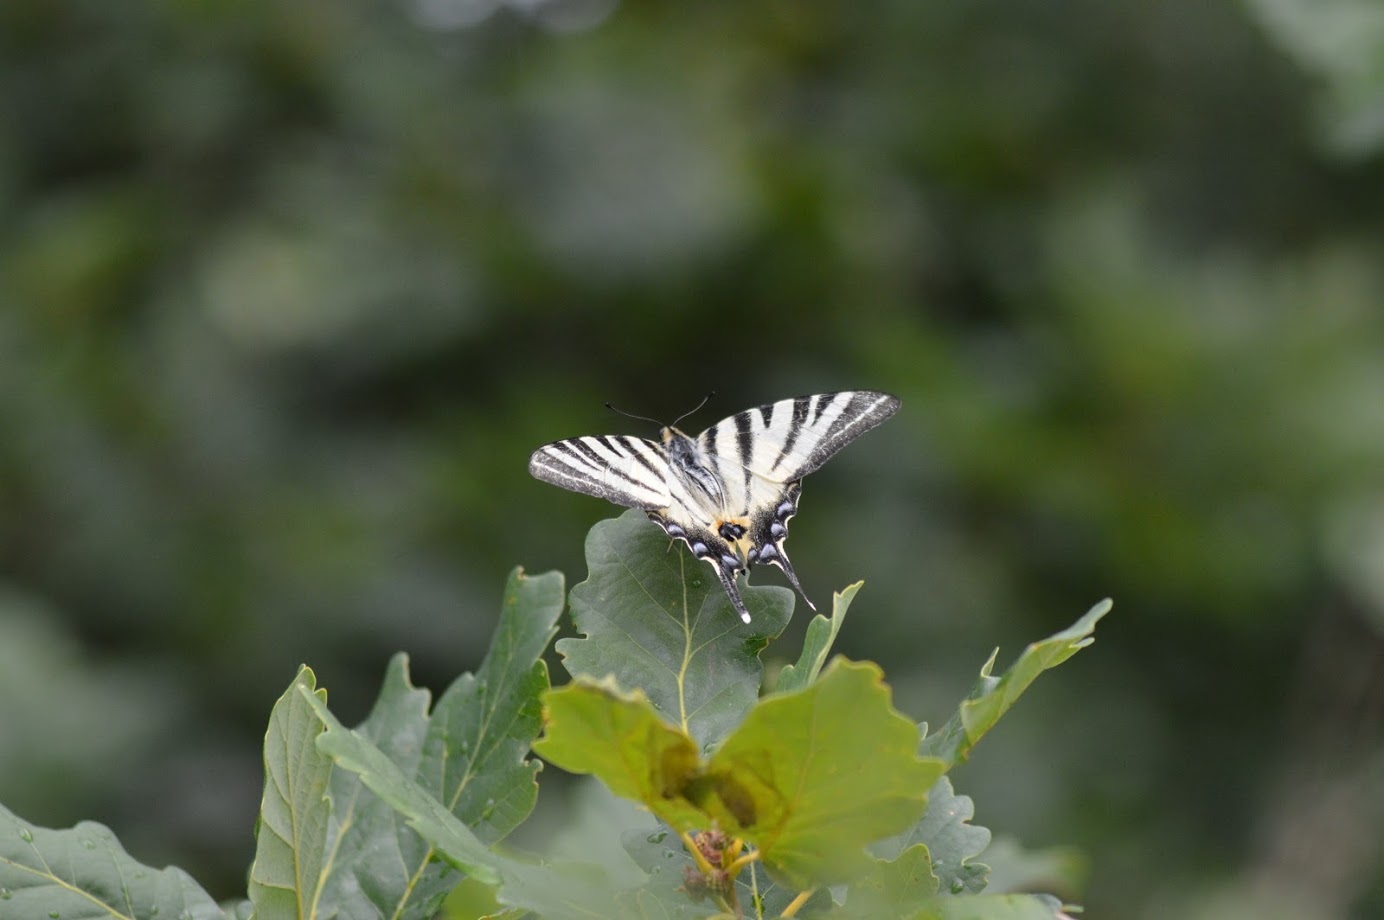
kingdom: Animalia
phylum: Arthropoda
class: Insecta
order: Lepidoptera
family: Papilionidae
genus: Iphiclides
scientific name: Iphiclides podalirius
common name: Scarce swallowtail
